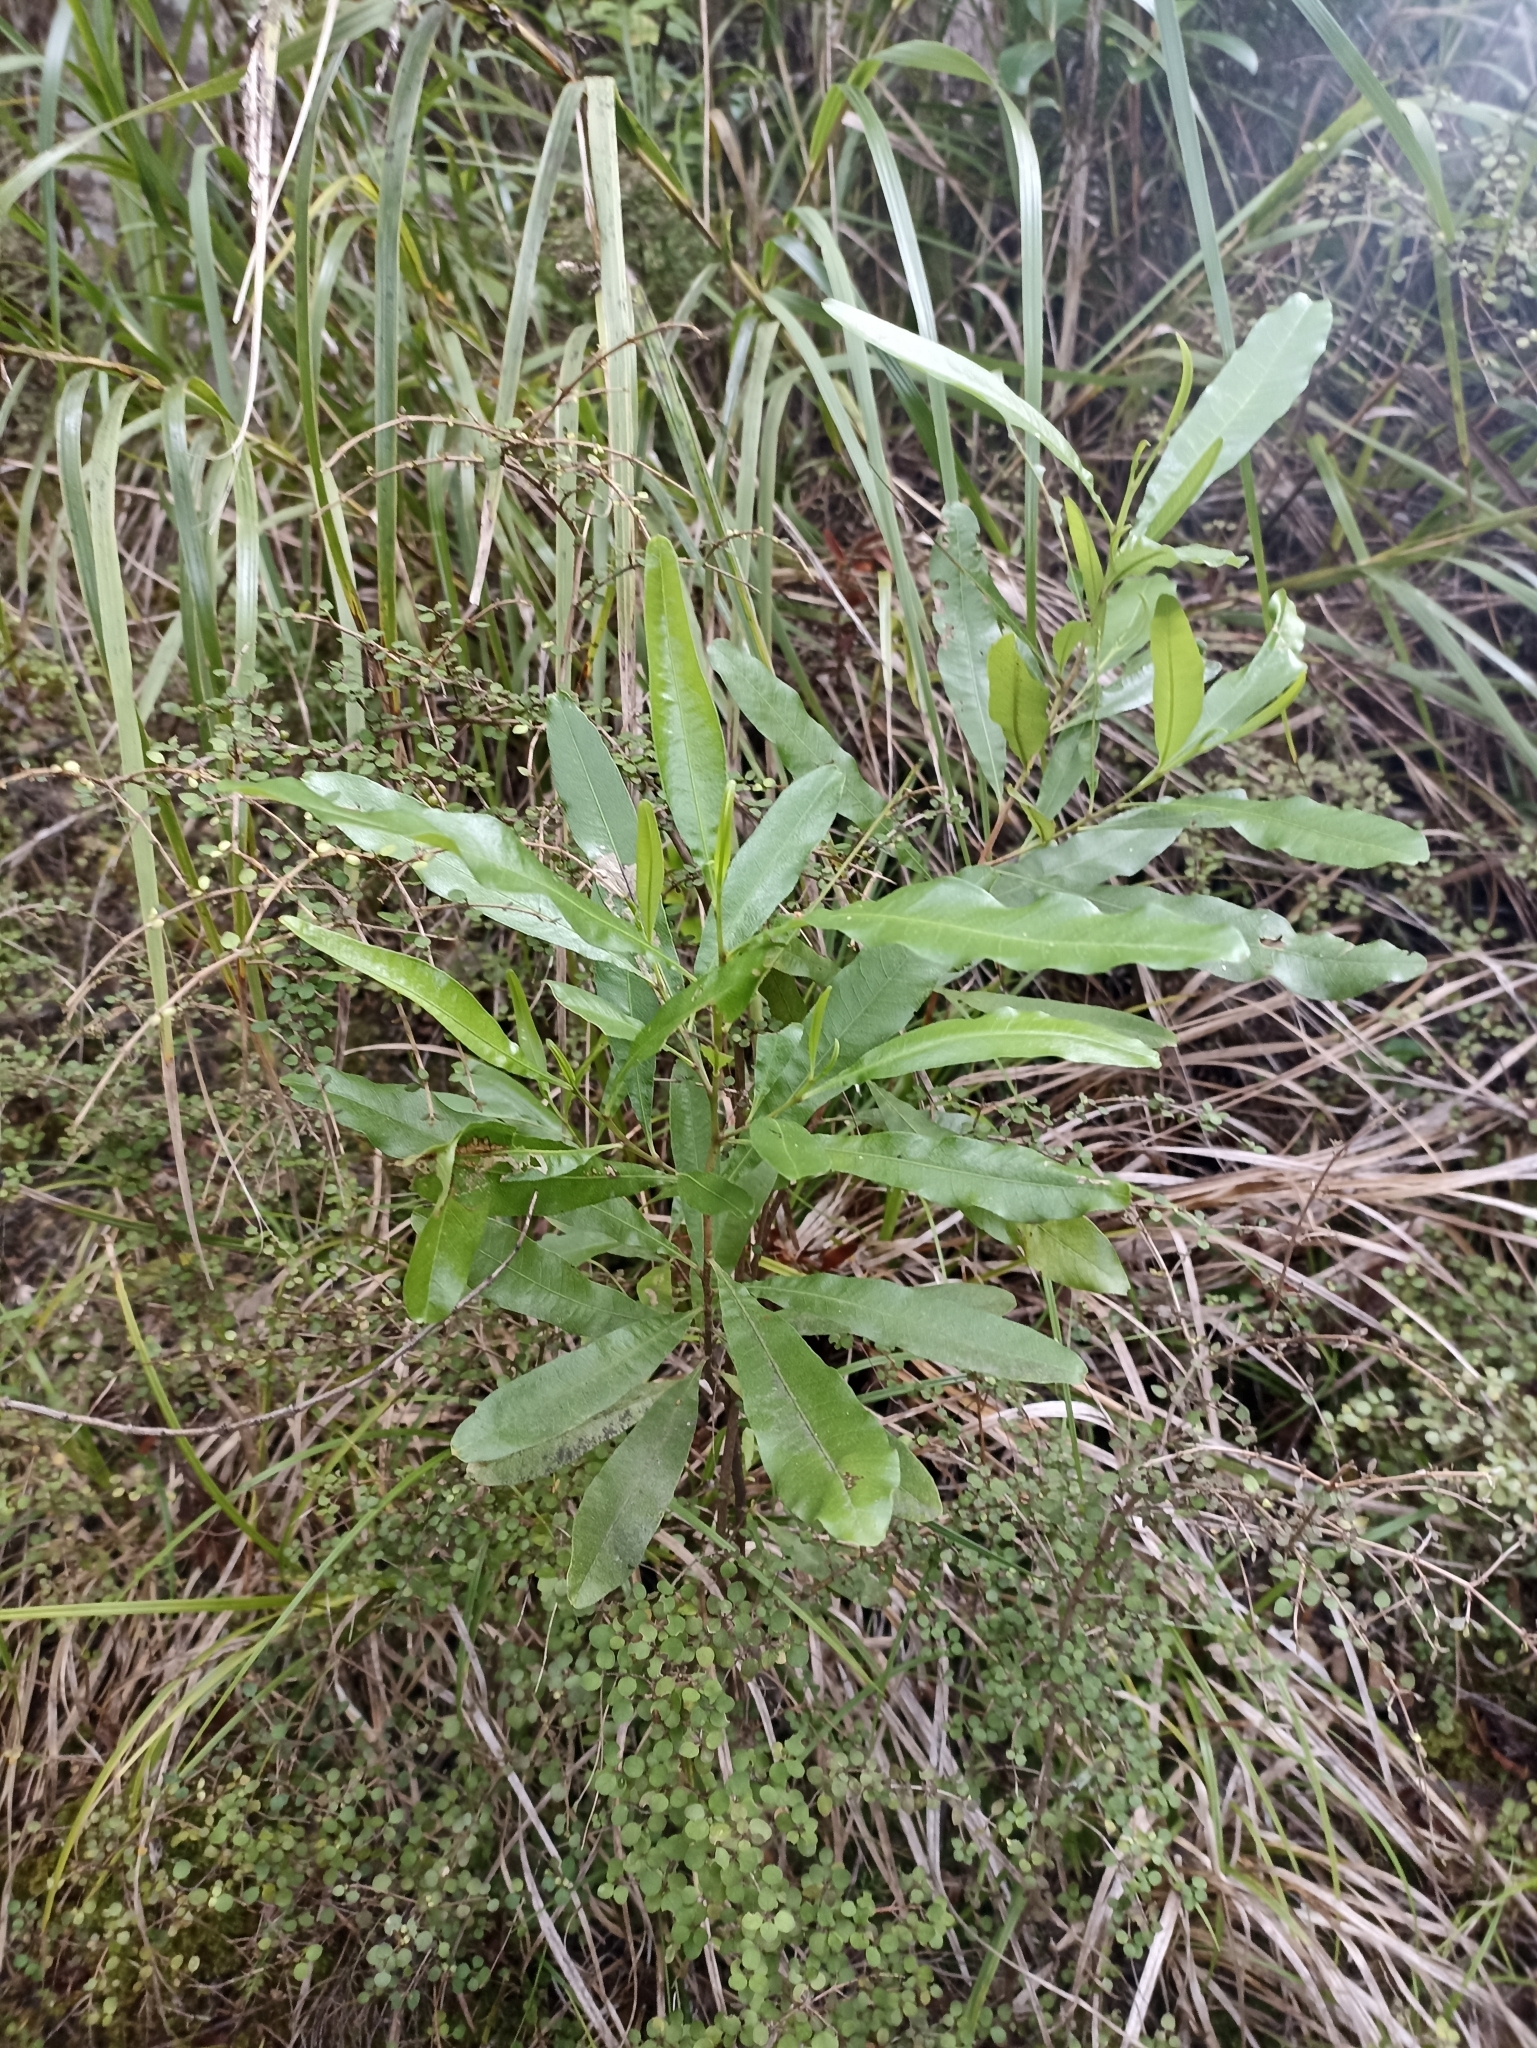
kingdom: Plantae
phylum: Tracheophyta
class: Magnoliopsida
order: Sapindales
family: Sapindaceae
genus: Dodonaea
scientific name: Dodonaea viscosa
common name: Hopbush
